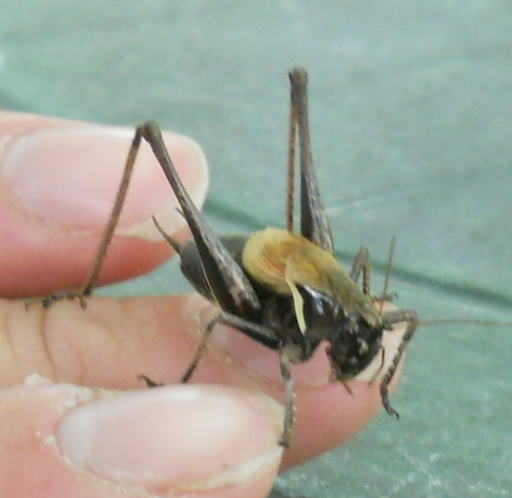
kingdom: Animalia
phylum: Arthropoda
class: Insecta
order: Orthoptera
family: Tettigoniidae
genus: Pholidoptera
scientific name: Pholidoptera aptera
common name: Alpine dark bush-cricket
